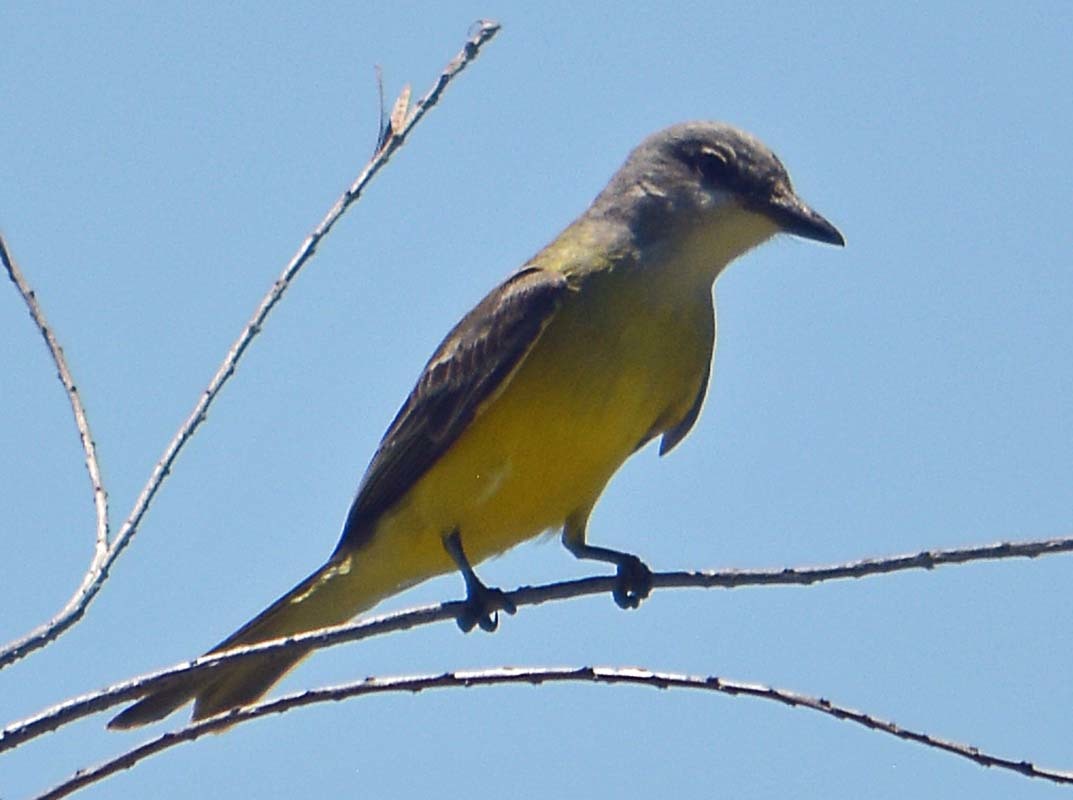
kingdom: Animalia
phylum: Chordata
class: Aves
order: Passeriformes
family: Tyrannidae
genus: Tyrannus
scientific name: Tyrannus melancholicus
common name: Tropical kingbird
